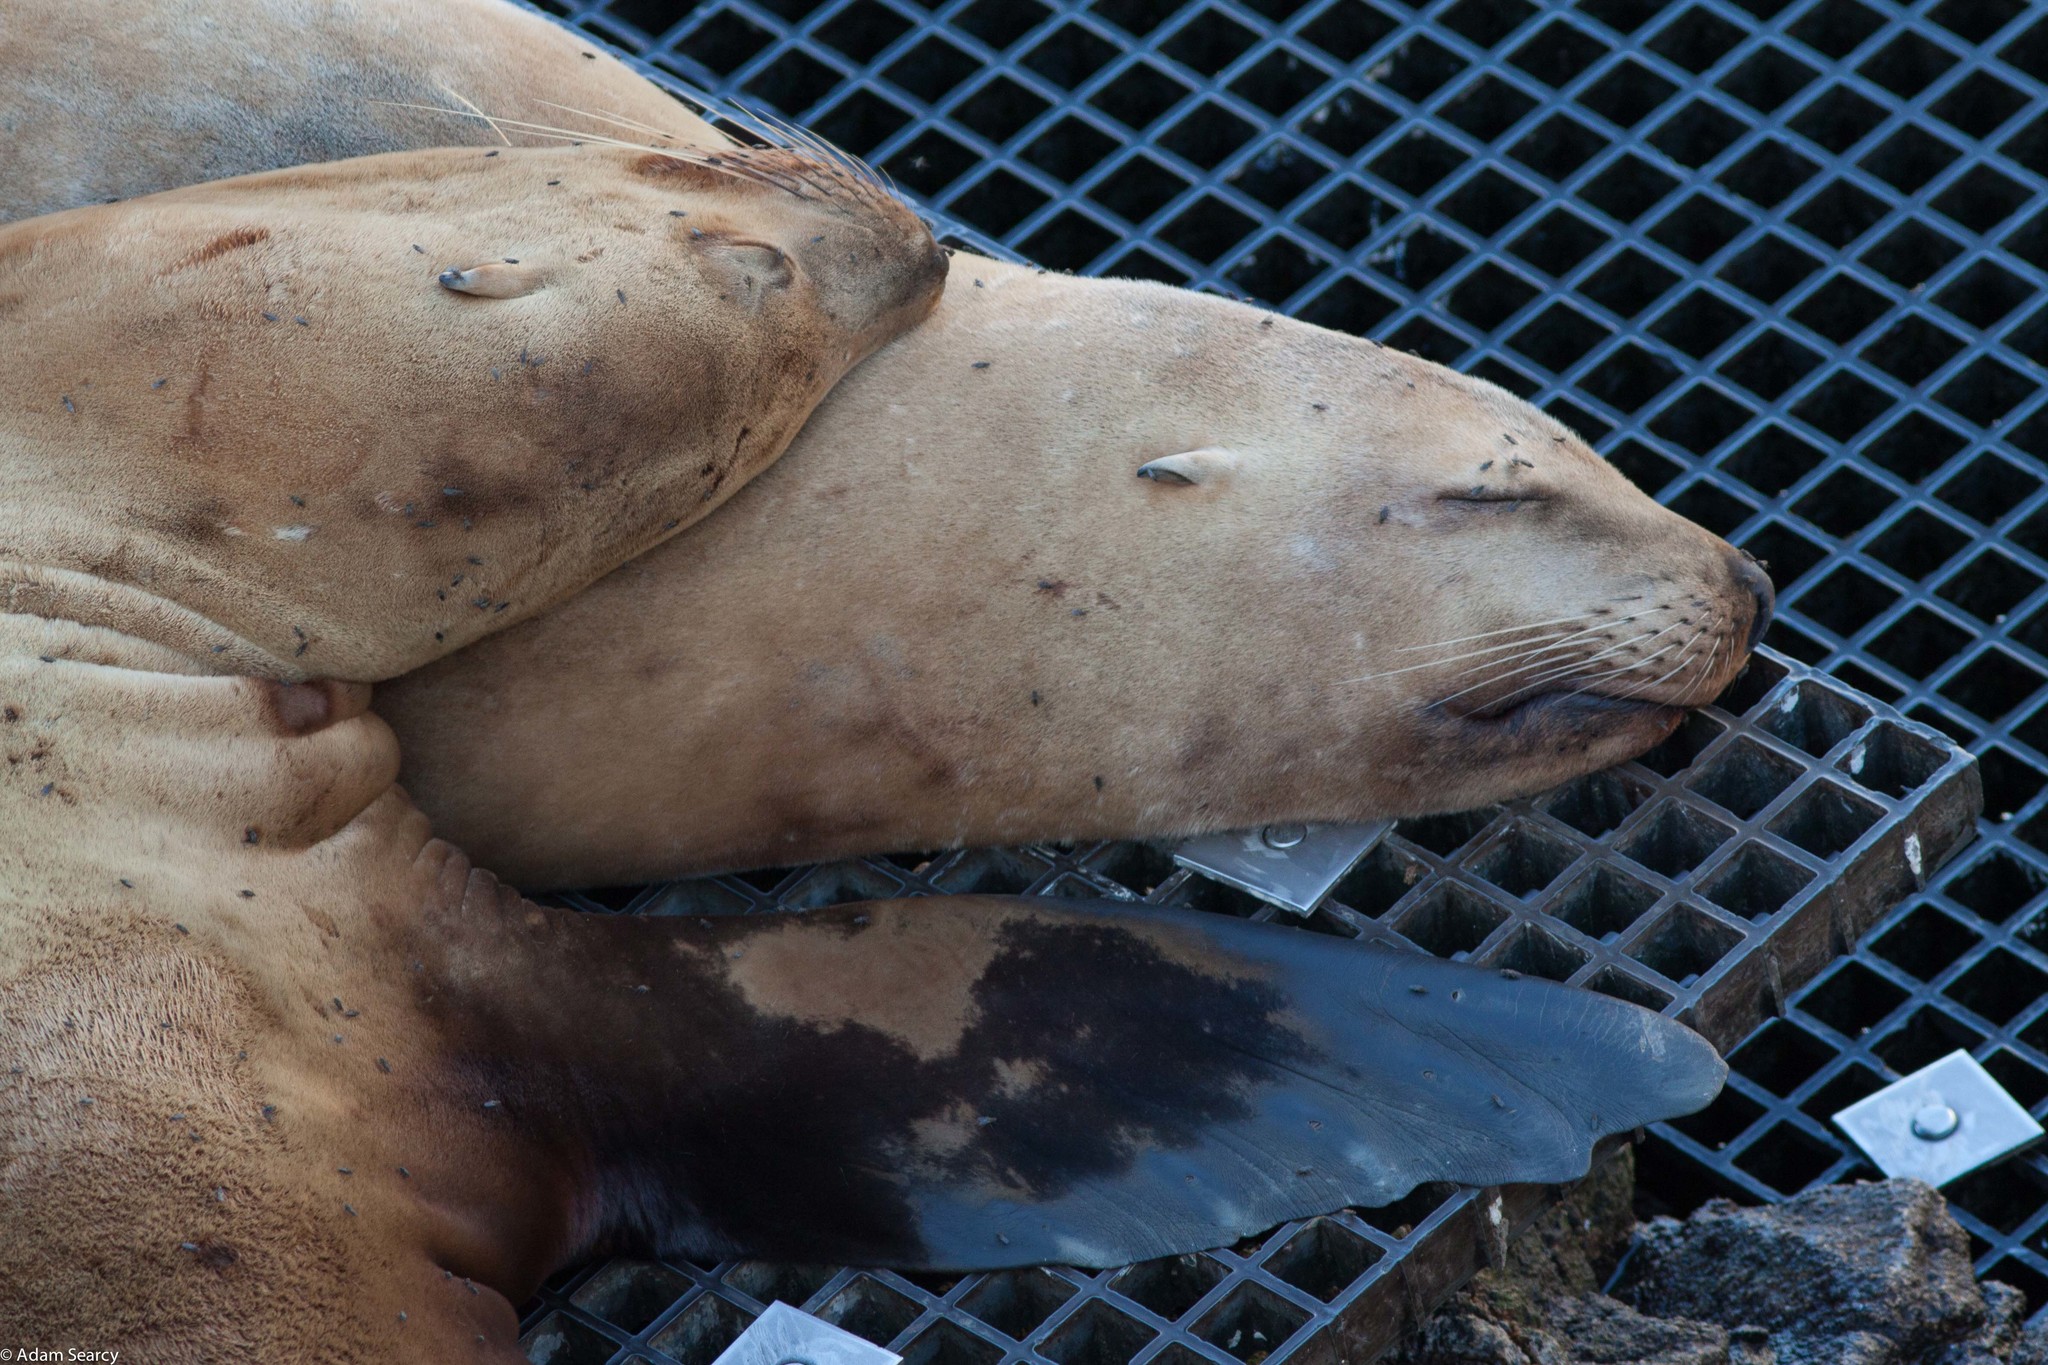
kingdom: Animalia
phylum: Chordata
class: Mammalia
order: Carnivora
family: Otariidae
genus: Eumetopias
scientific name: Eumetopias jubatus
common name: Steller sea lion
